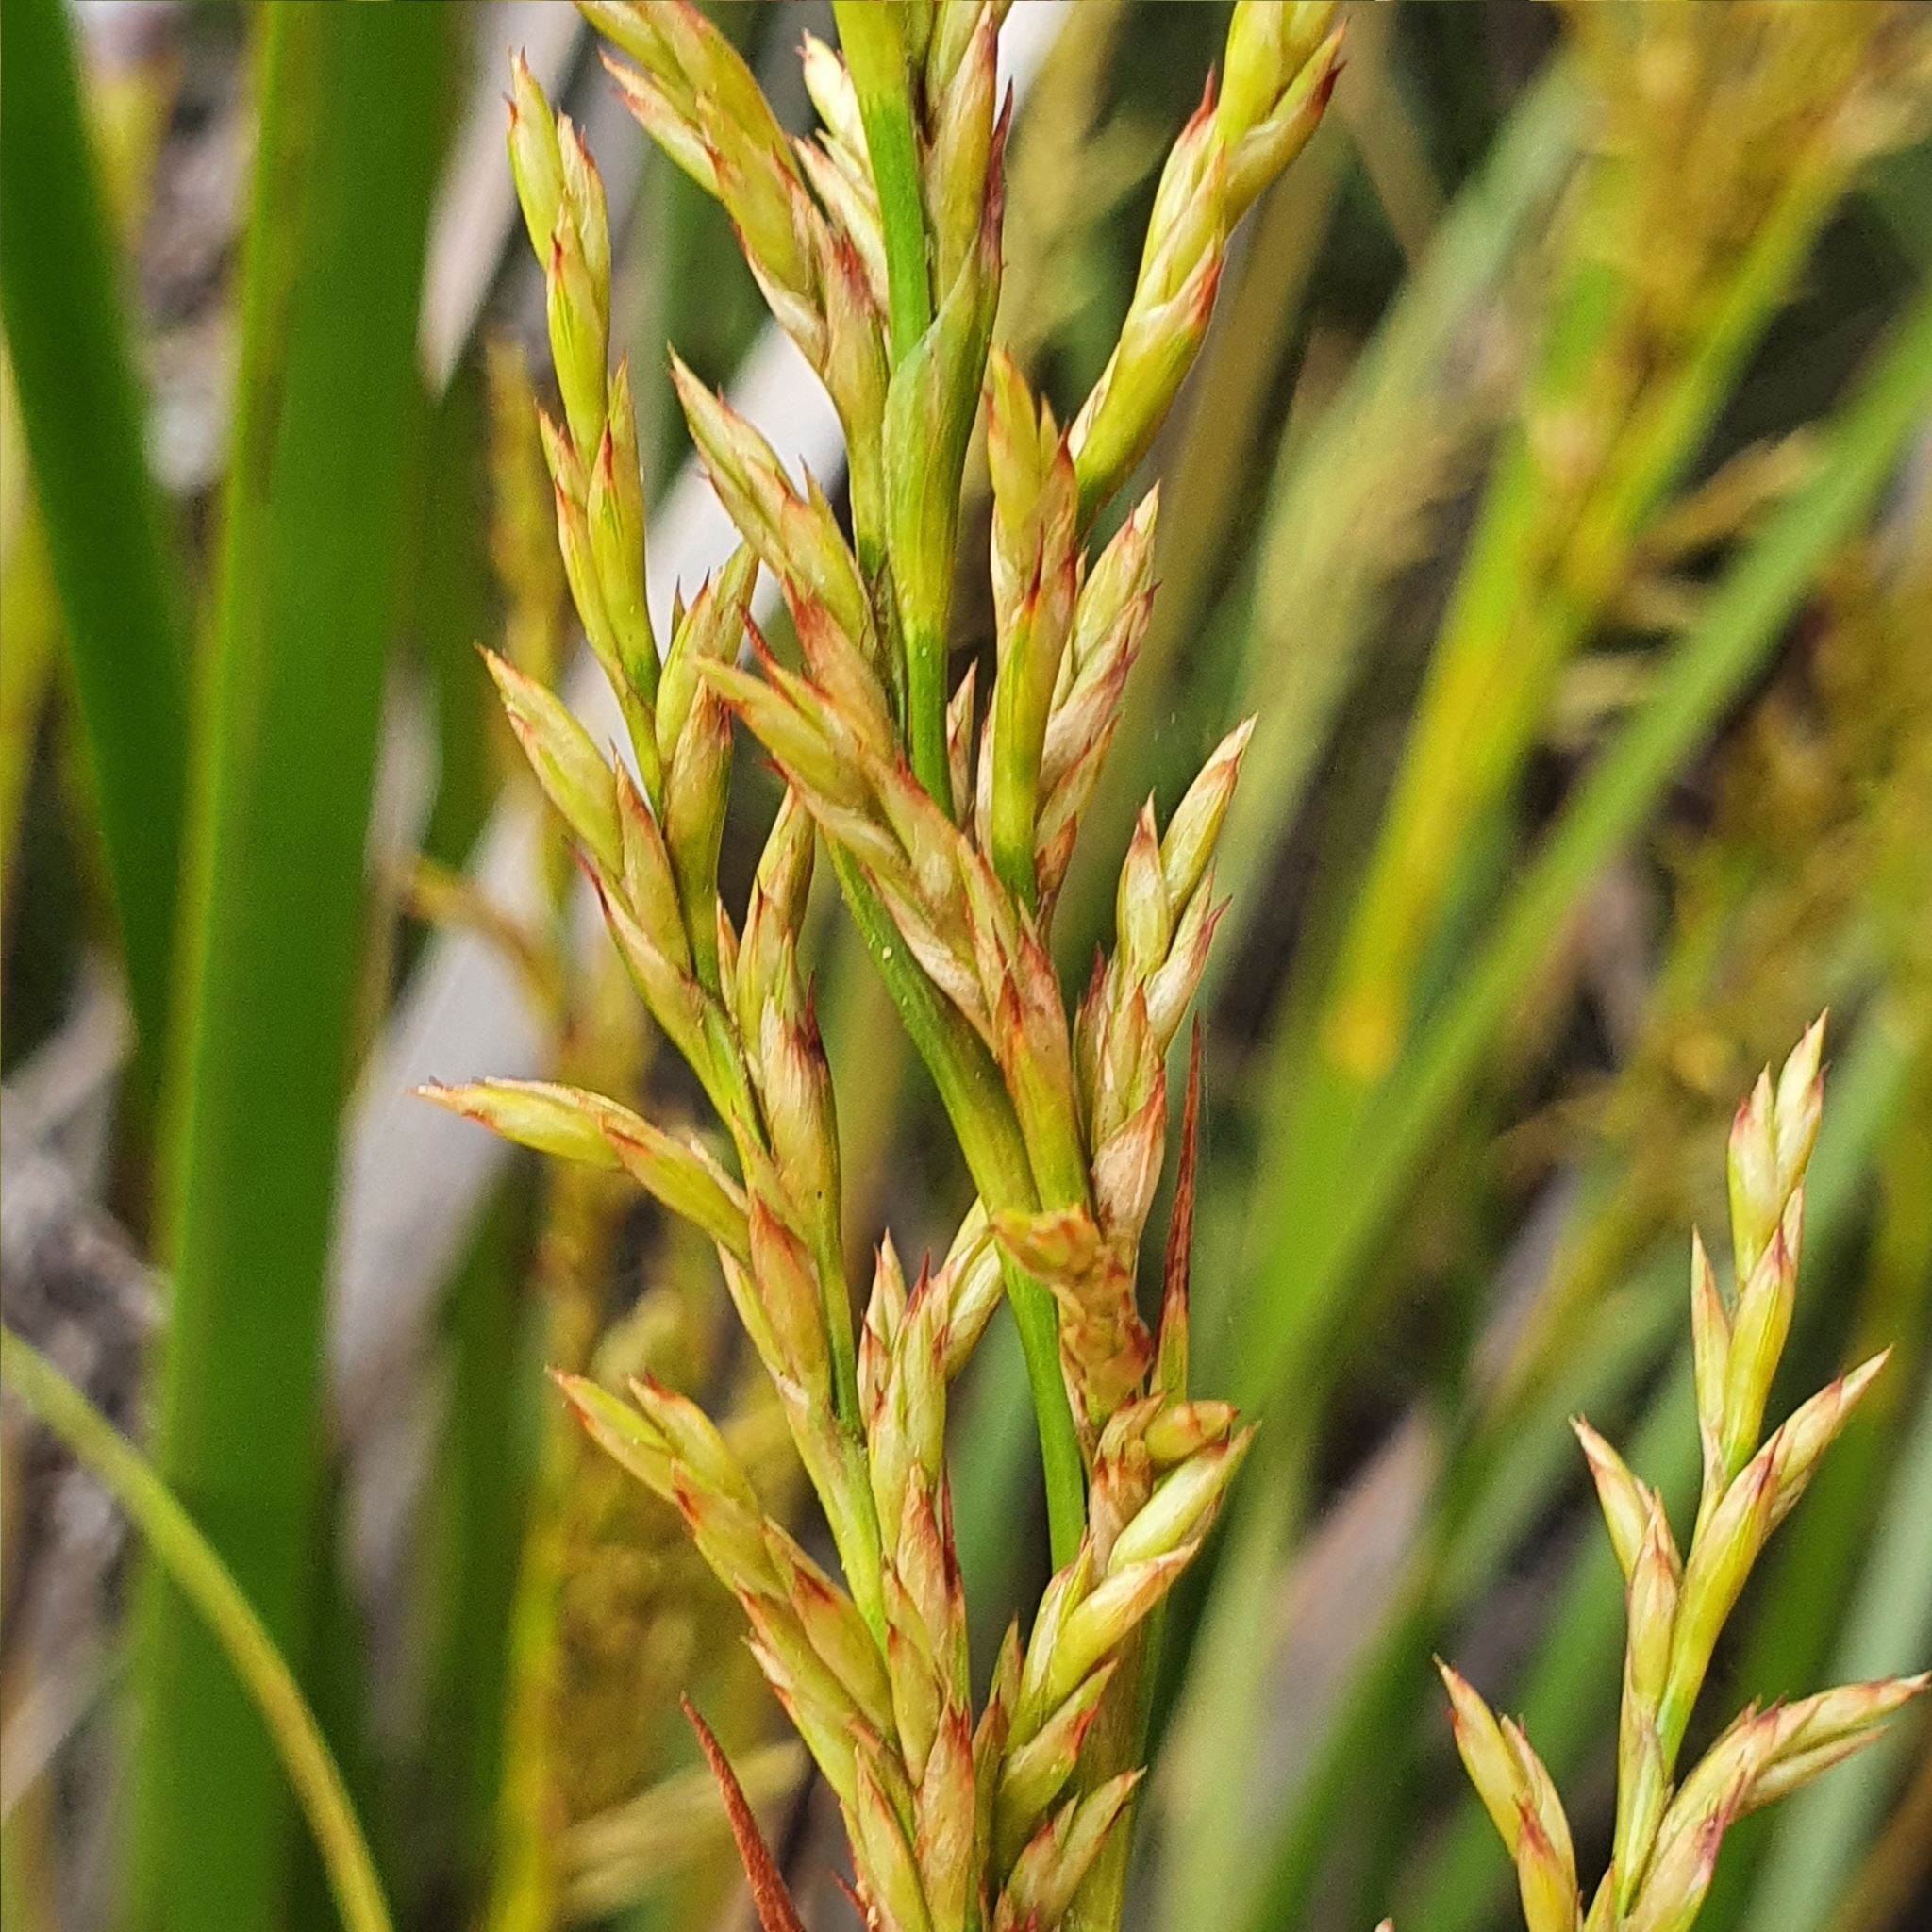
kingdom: Plantae
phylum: Tracheophyta
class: Liliopsida
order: Poales
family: Cyperaceae
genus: Lepidosperma
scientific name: Lepidosperma laterale
